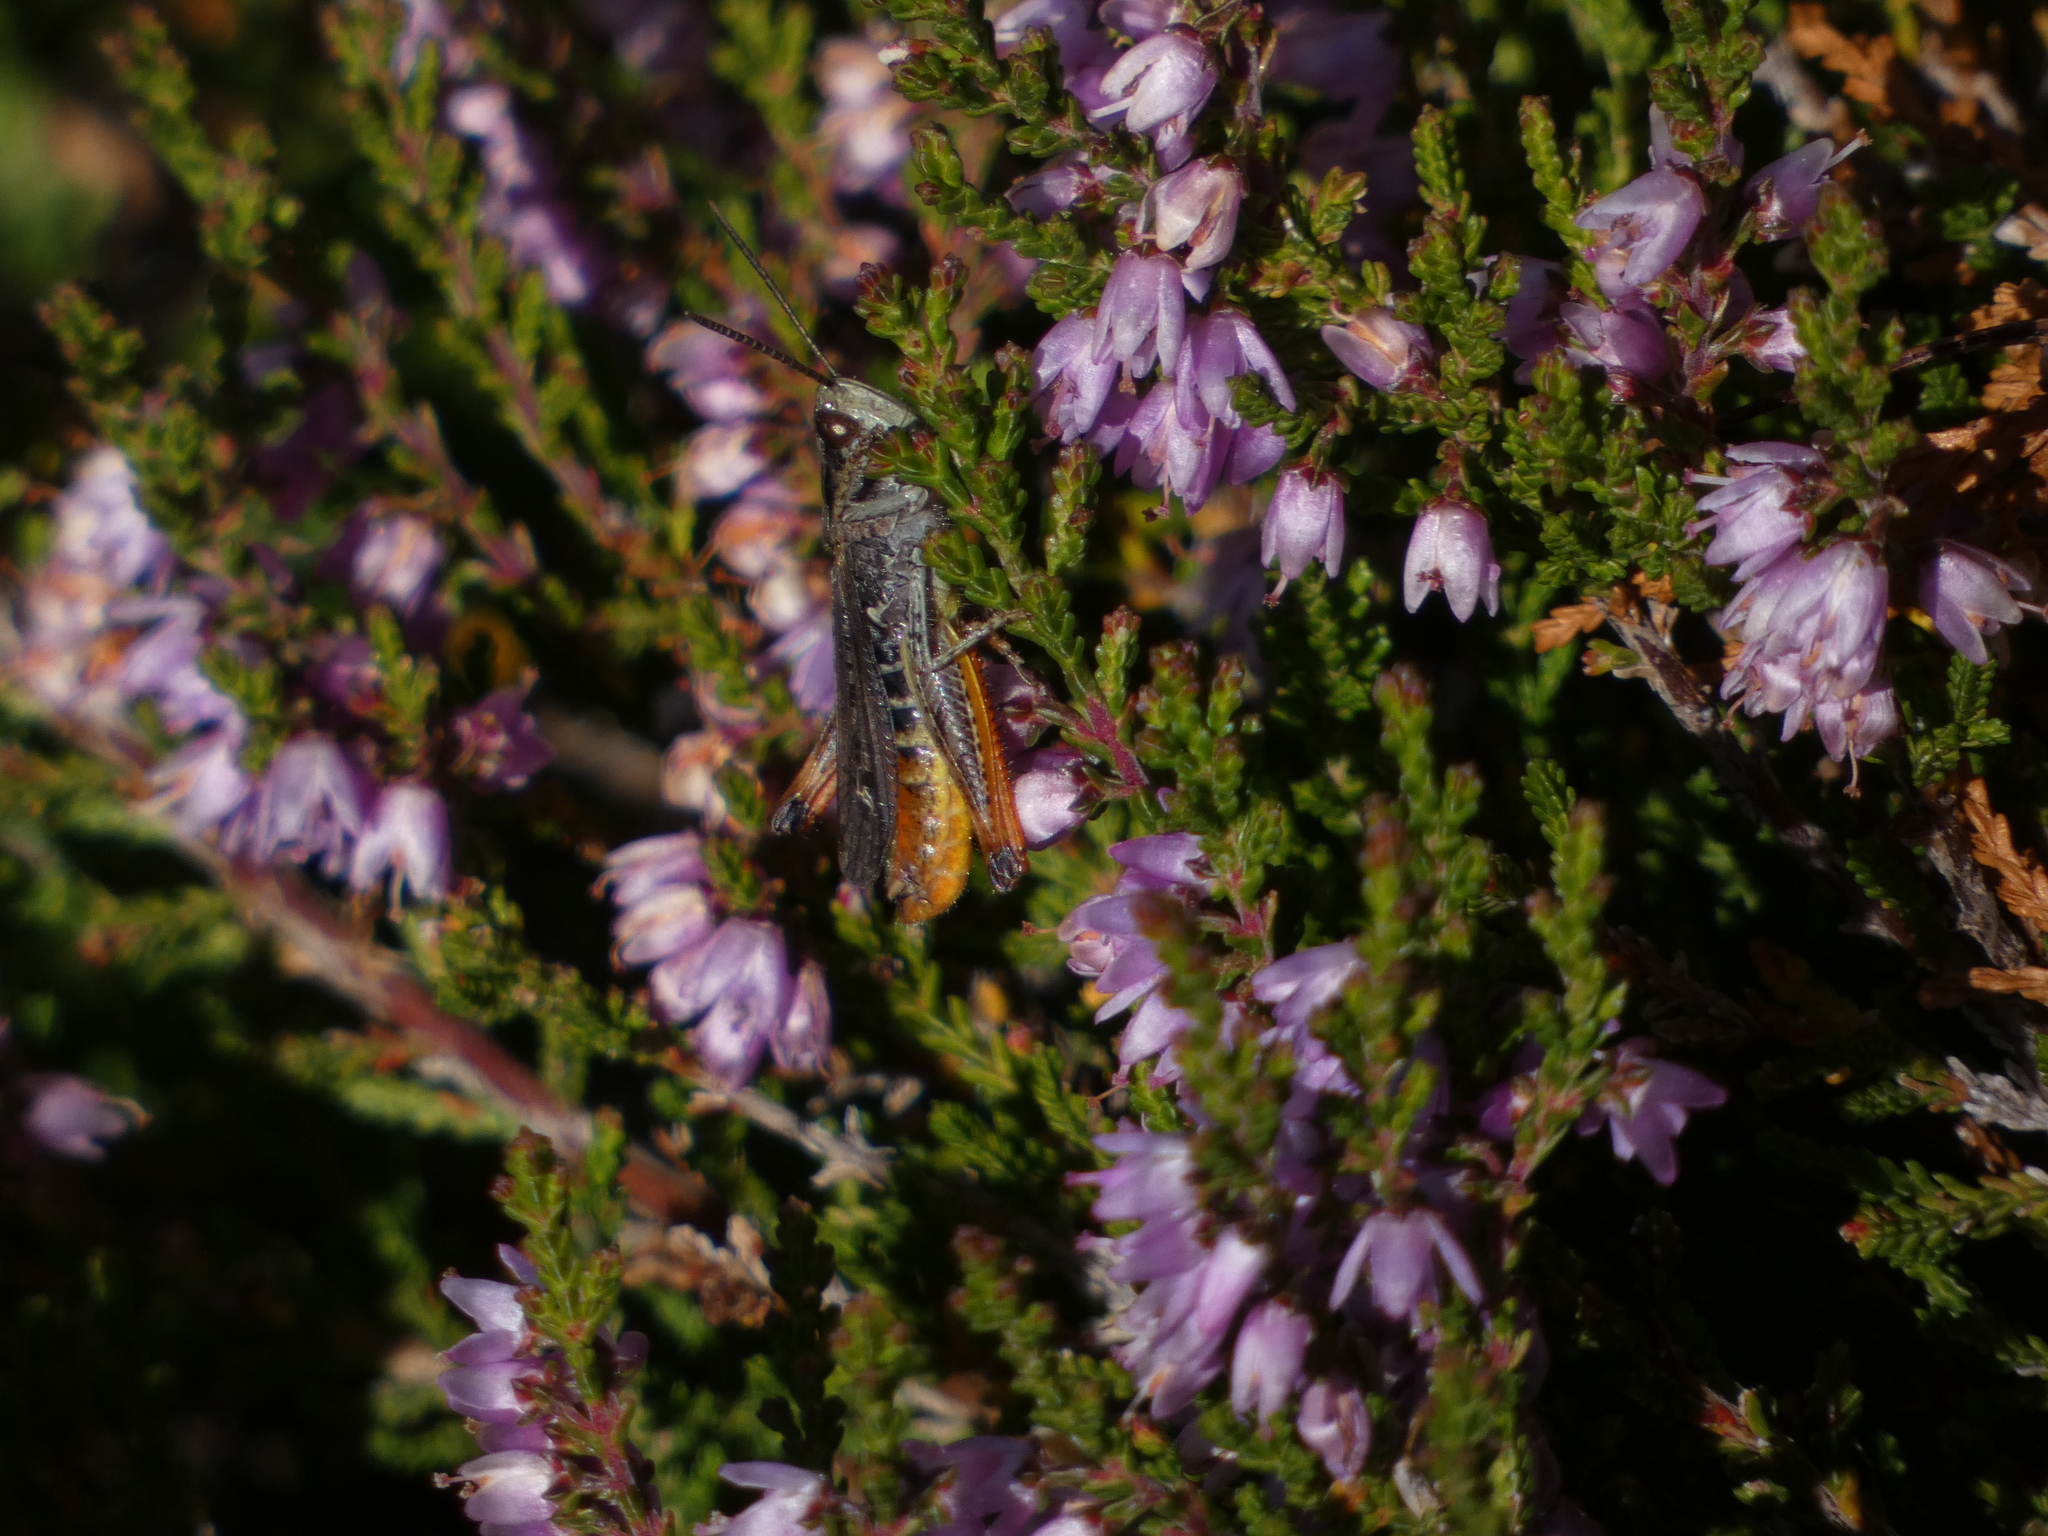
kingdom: Animalia
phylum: Arthropoda
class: Insecta
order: Orthoptera
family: Acrididae
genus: Omocestus
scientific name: Omocestus rufipes
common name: Woodland grasshopper
